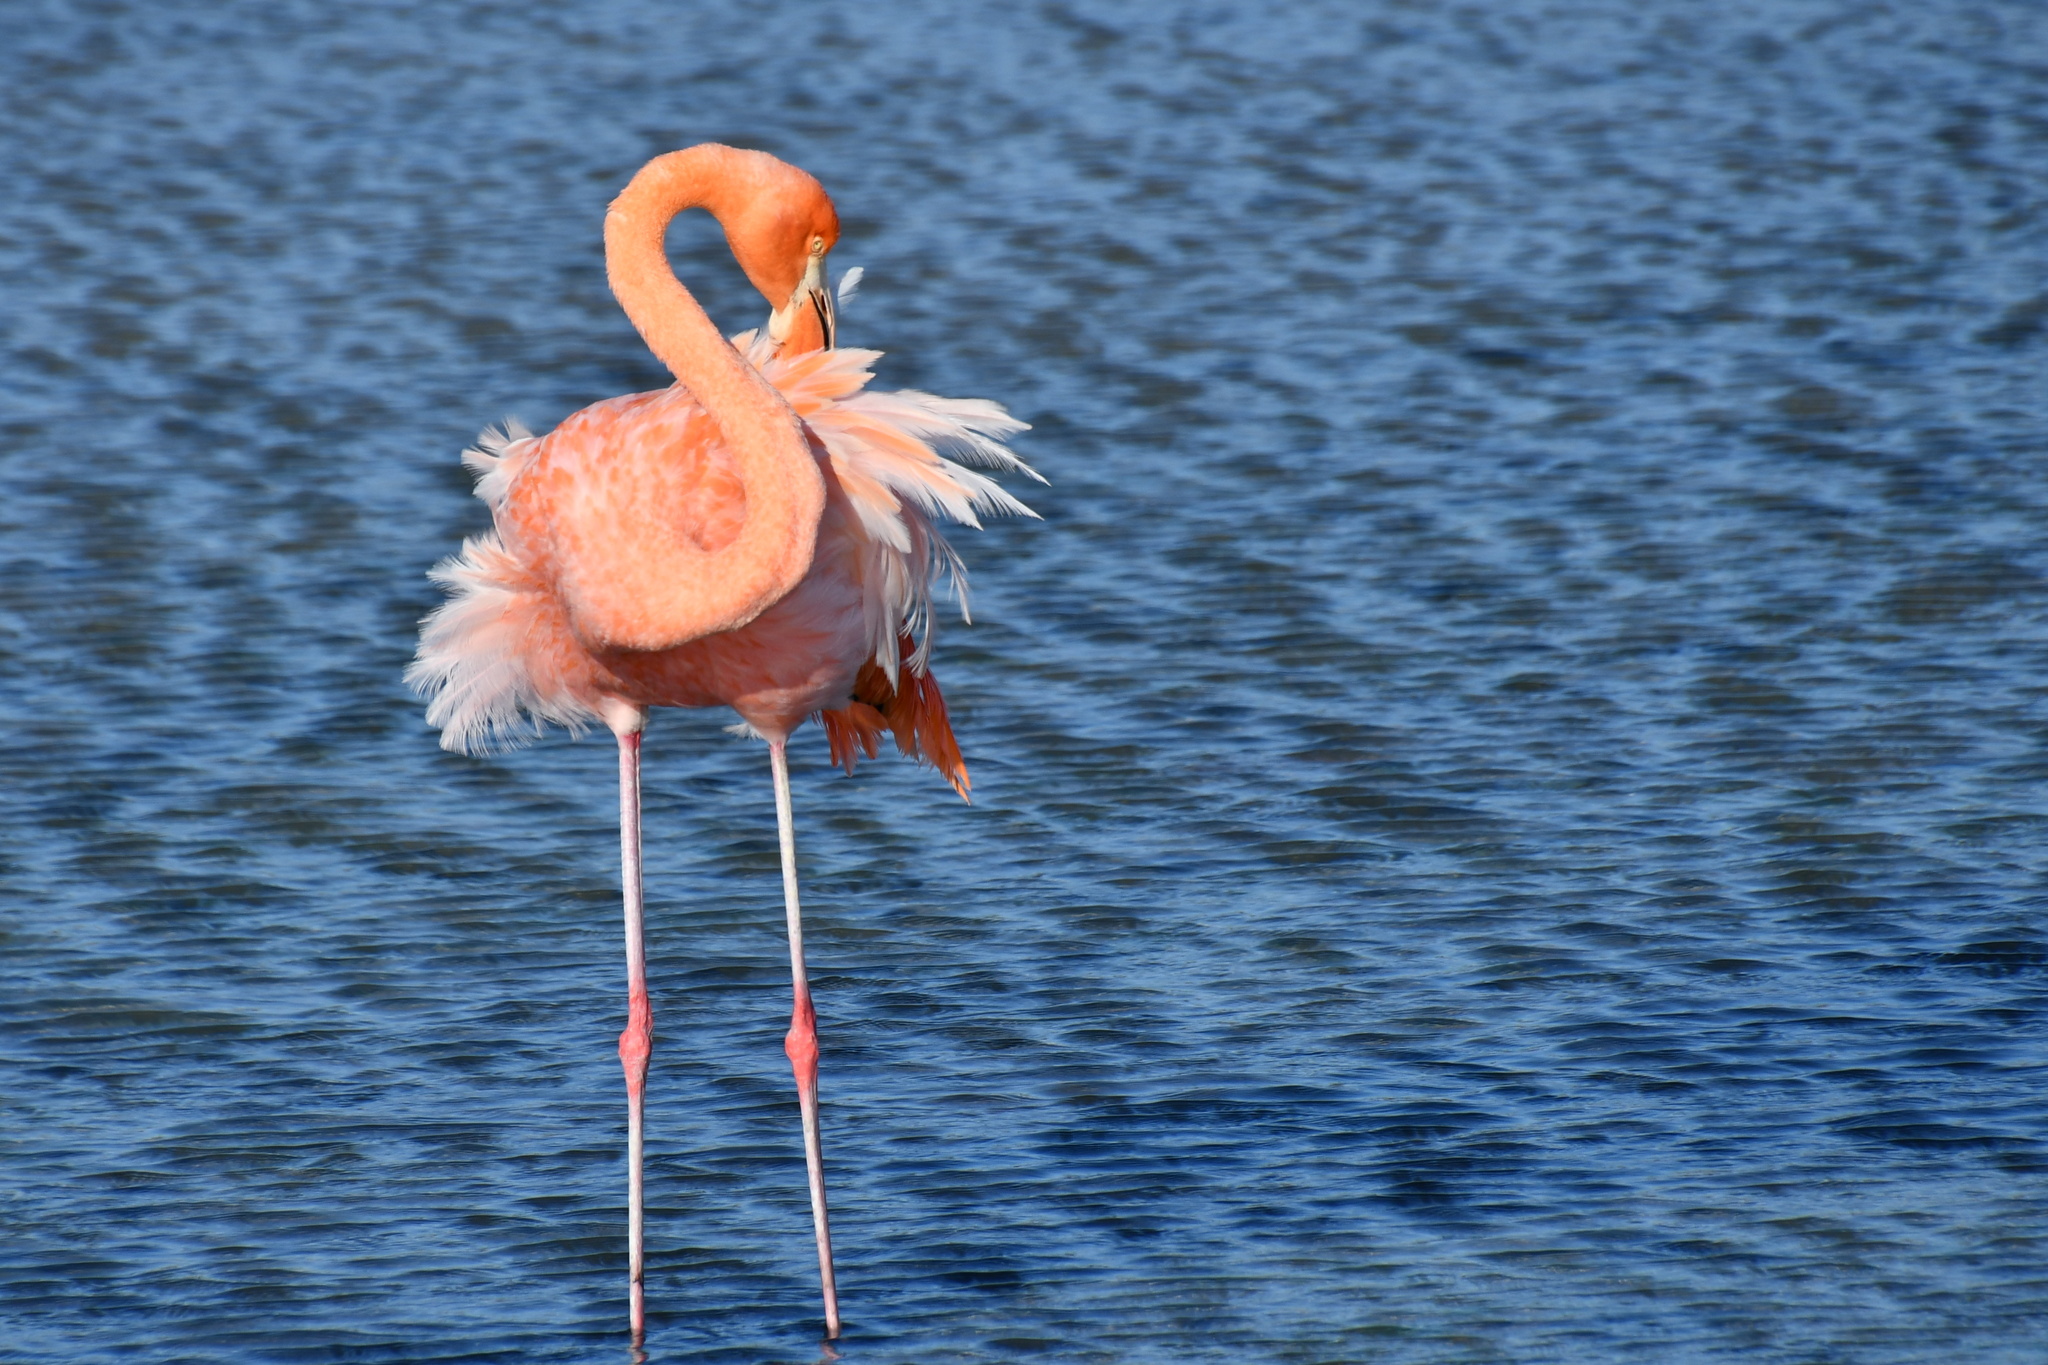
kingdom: Animalia
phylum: Chordata
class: Aves
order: Phoenicopteriformes
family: Phoenicopteridae
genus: Phoenicopterus
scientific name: Phoenicopterus ruber
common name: American flamingo
